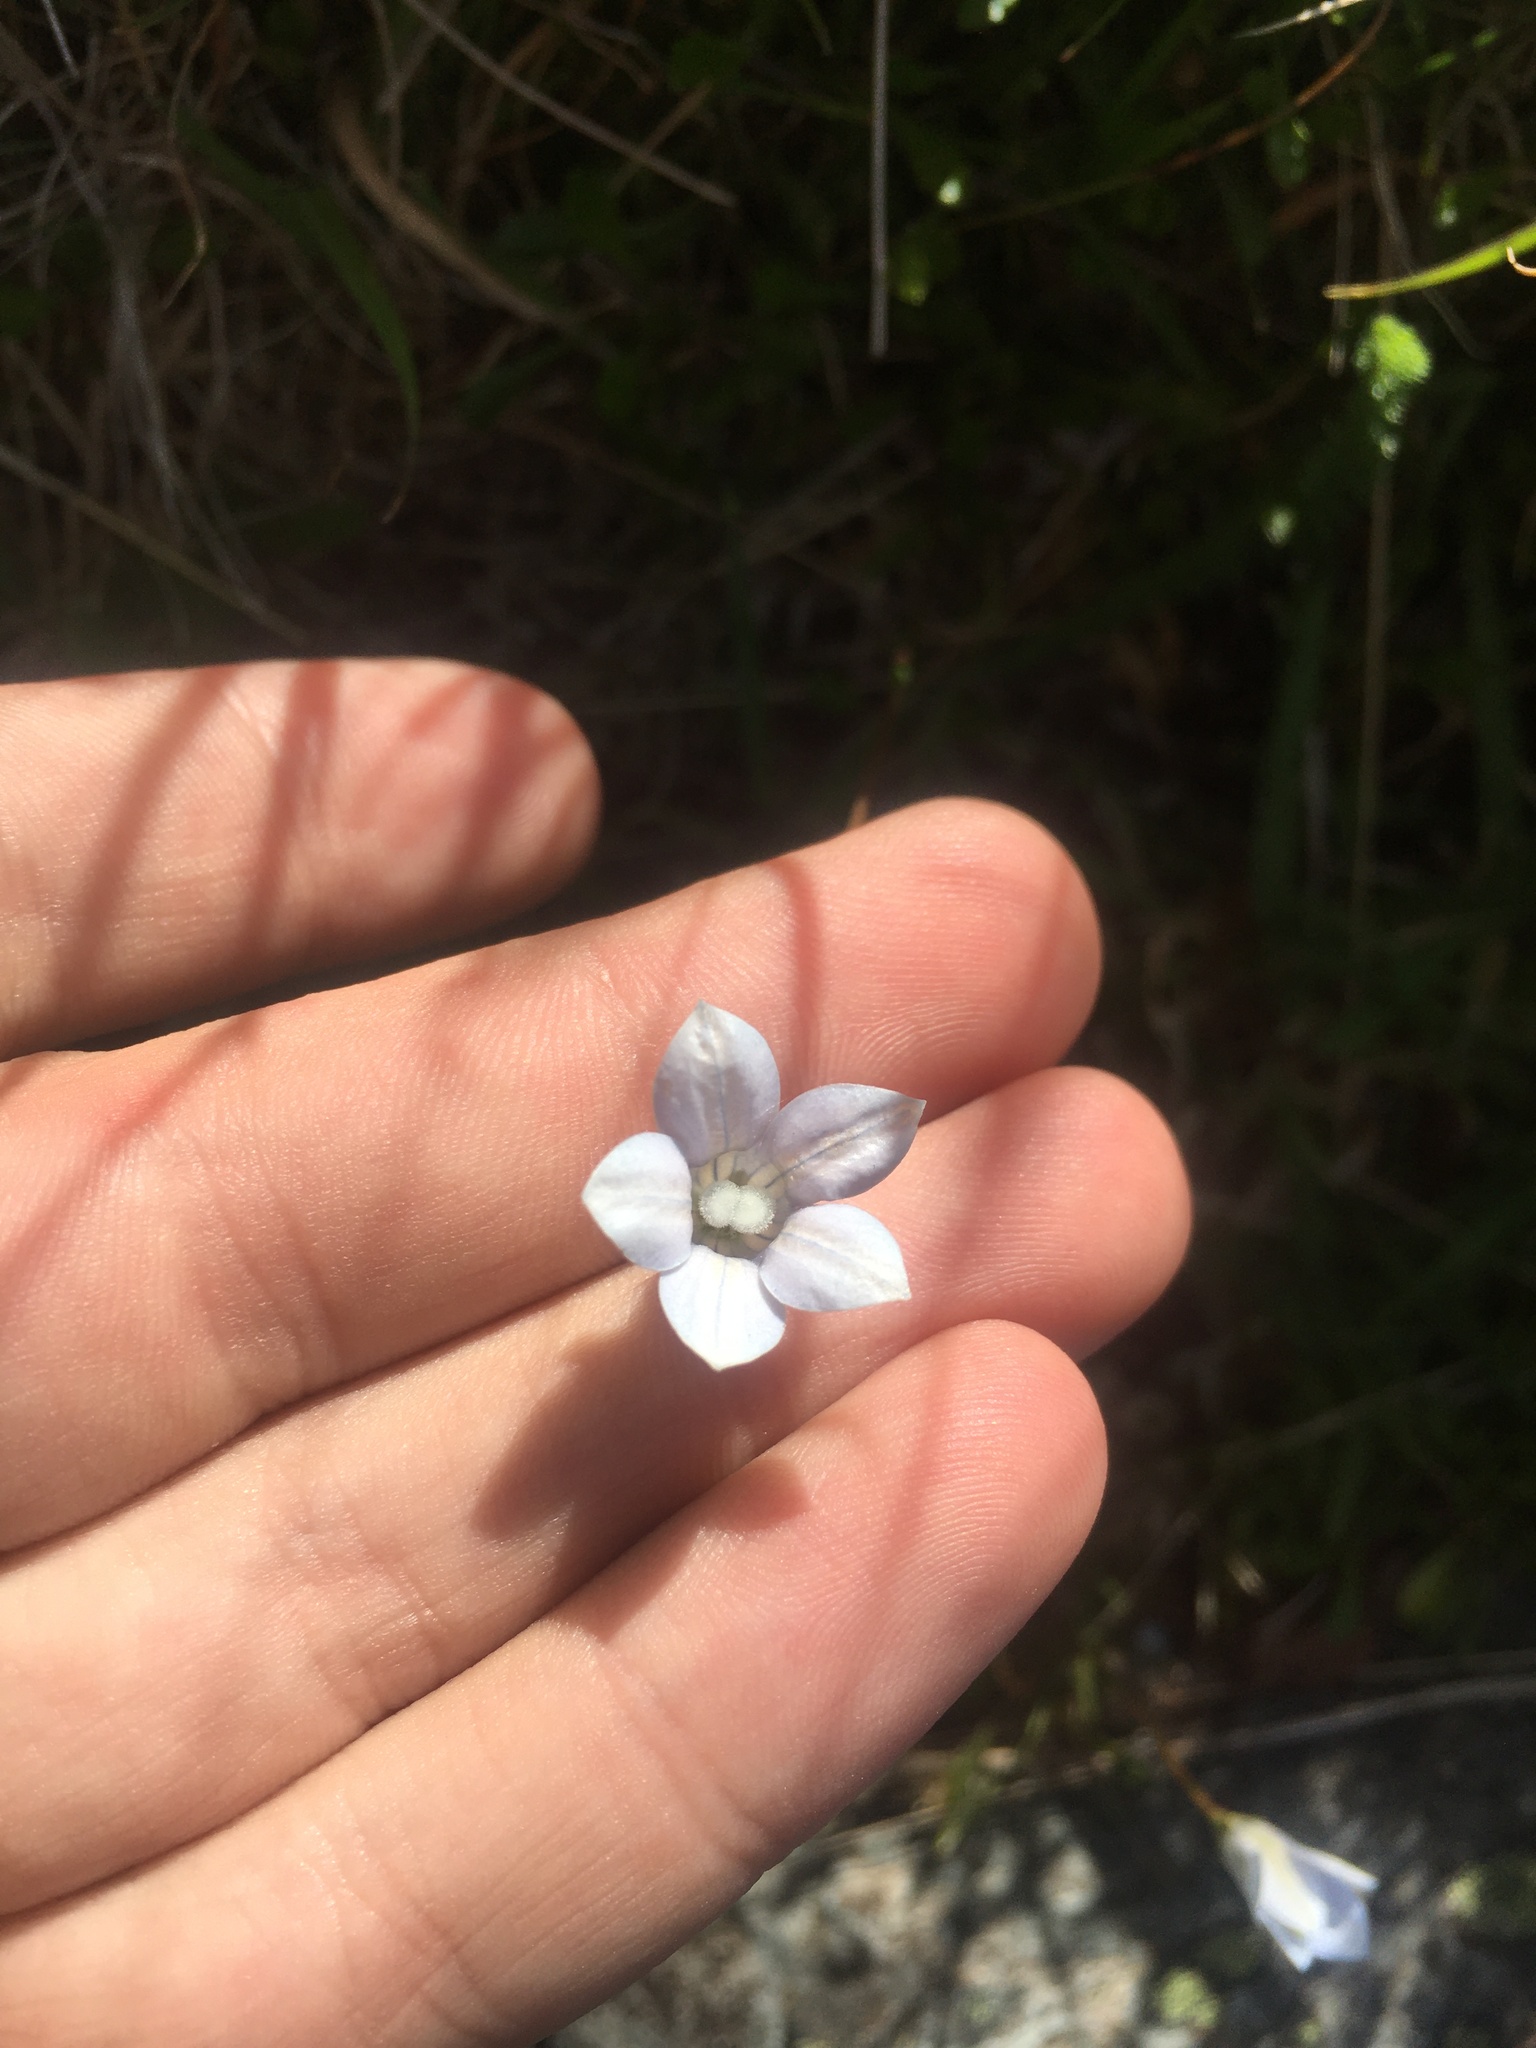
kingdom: Plantae
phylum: Tracheophyta
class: Magnoliopsida
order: Asterales
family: Campanulaceae
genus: Wahlenbergia
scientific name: Wahlenbergia albomarginata
